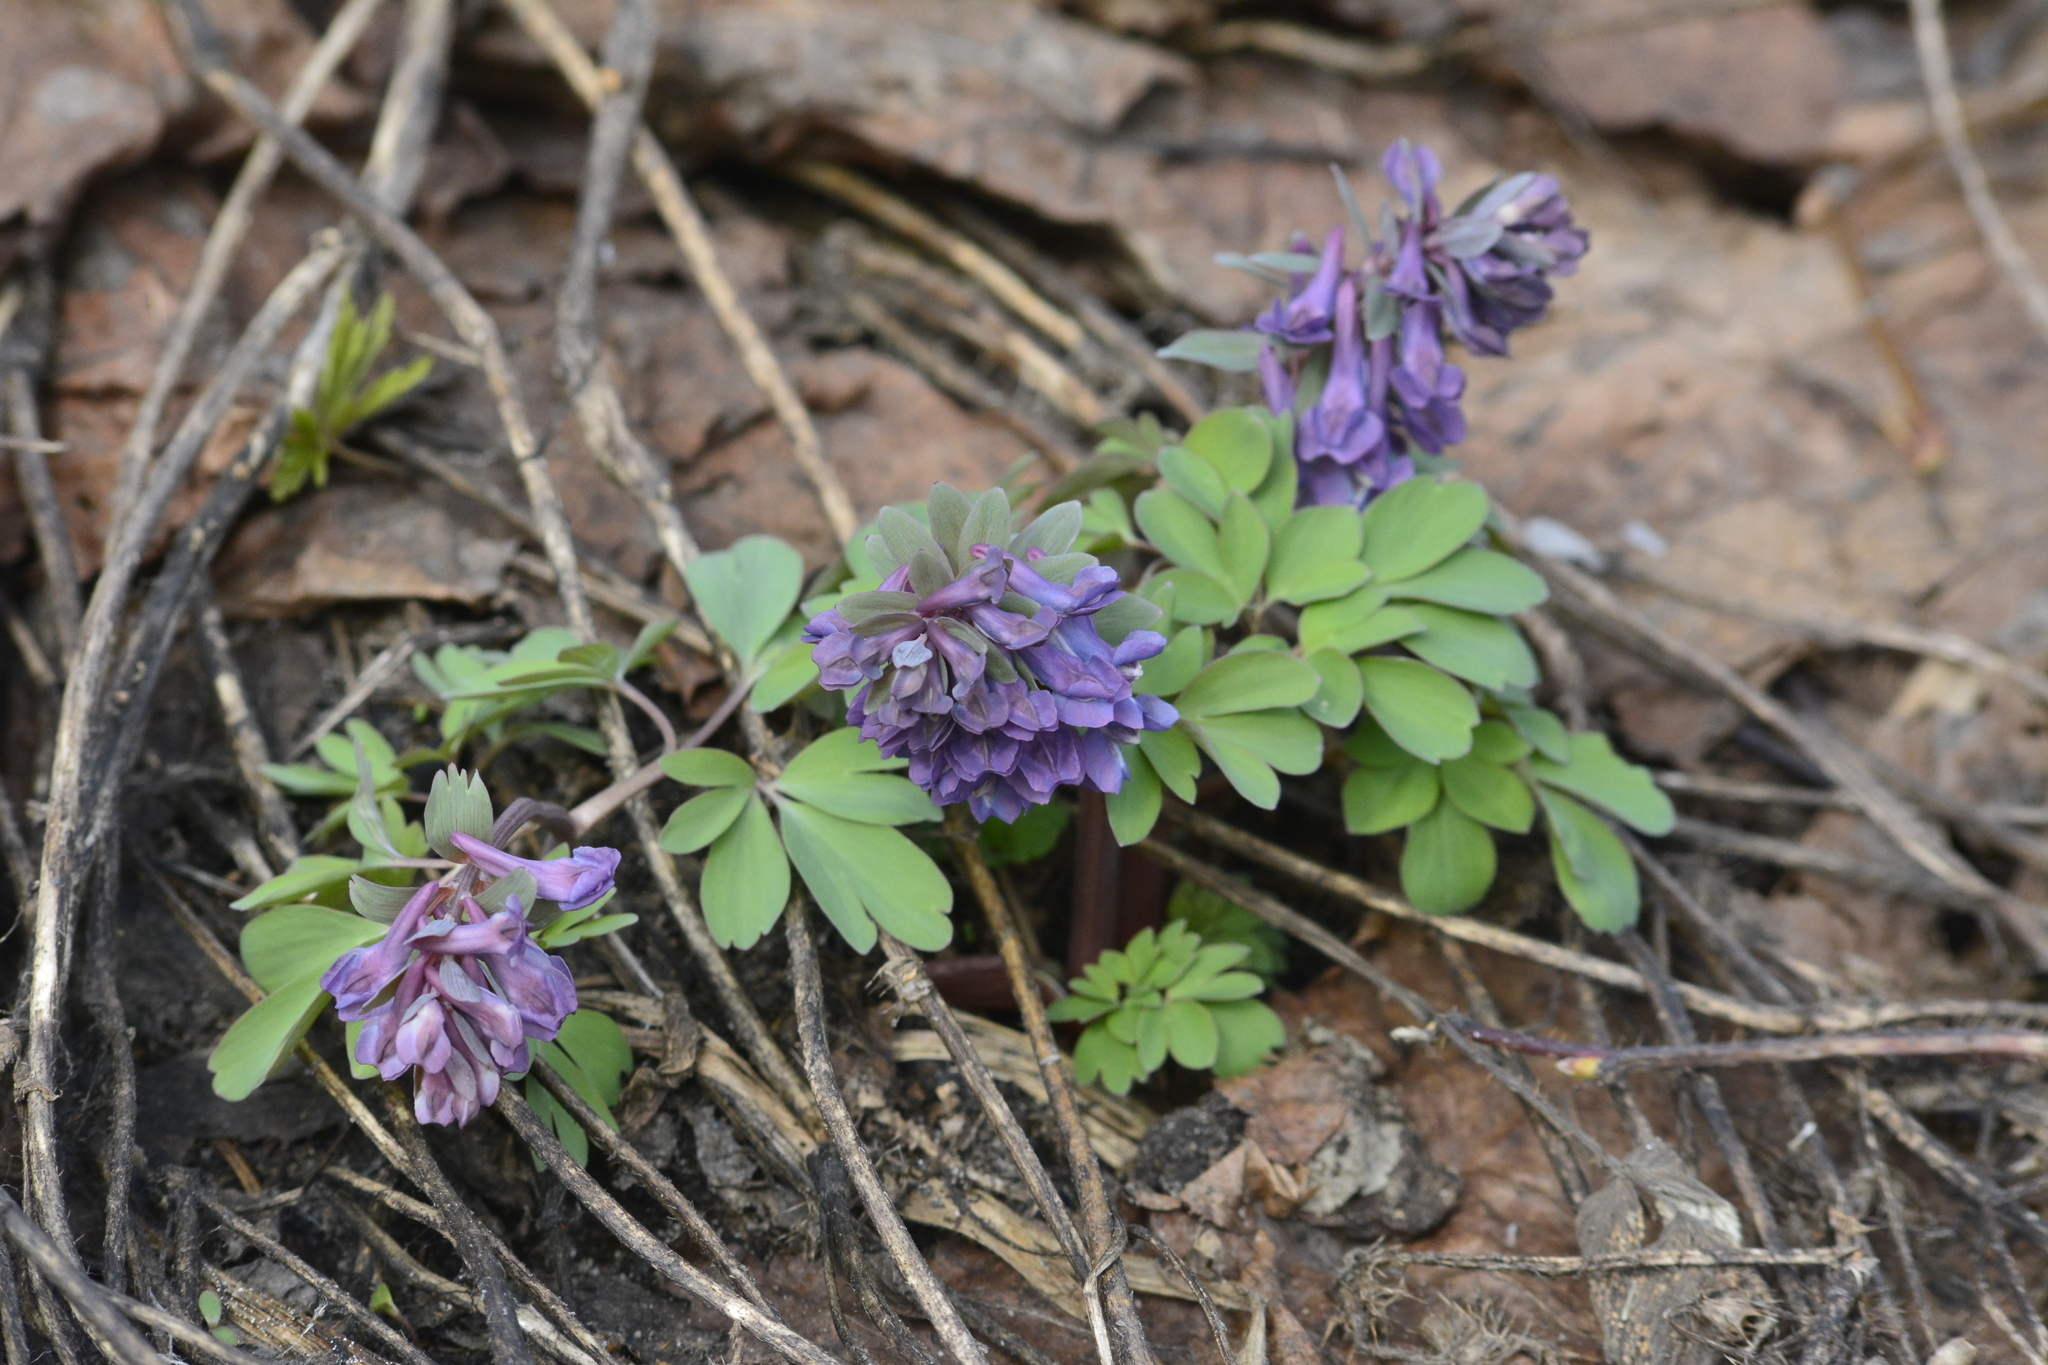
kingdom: Plantae
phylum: Tracheophyta
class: Magnoliopsida
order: Ranunculales
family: Papaveraceae
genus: Corydalis
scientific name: Corydalis ambigua
